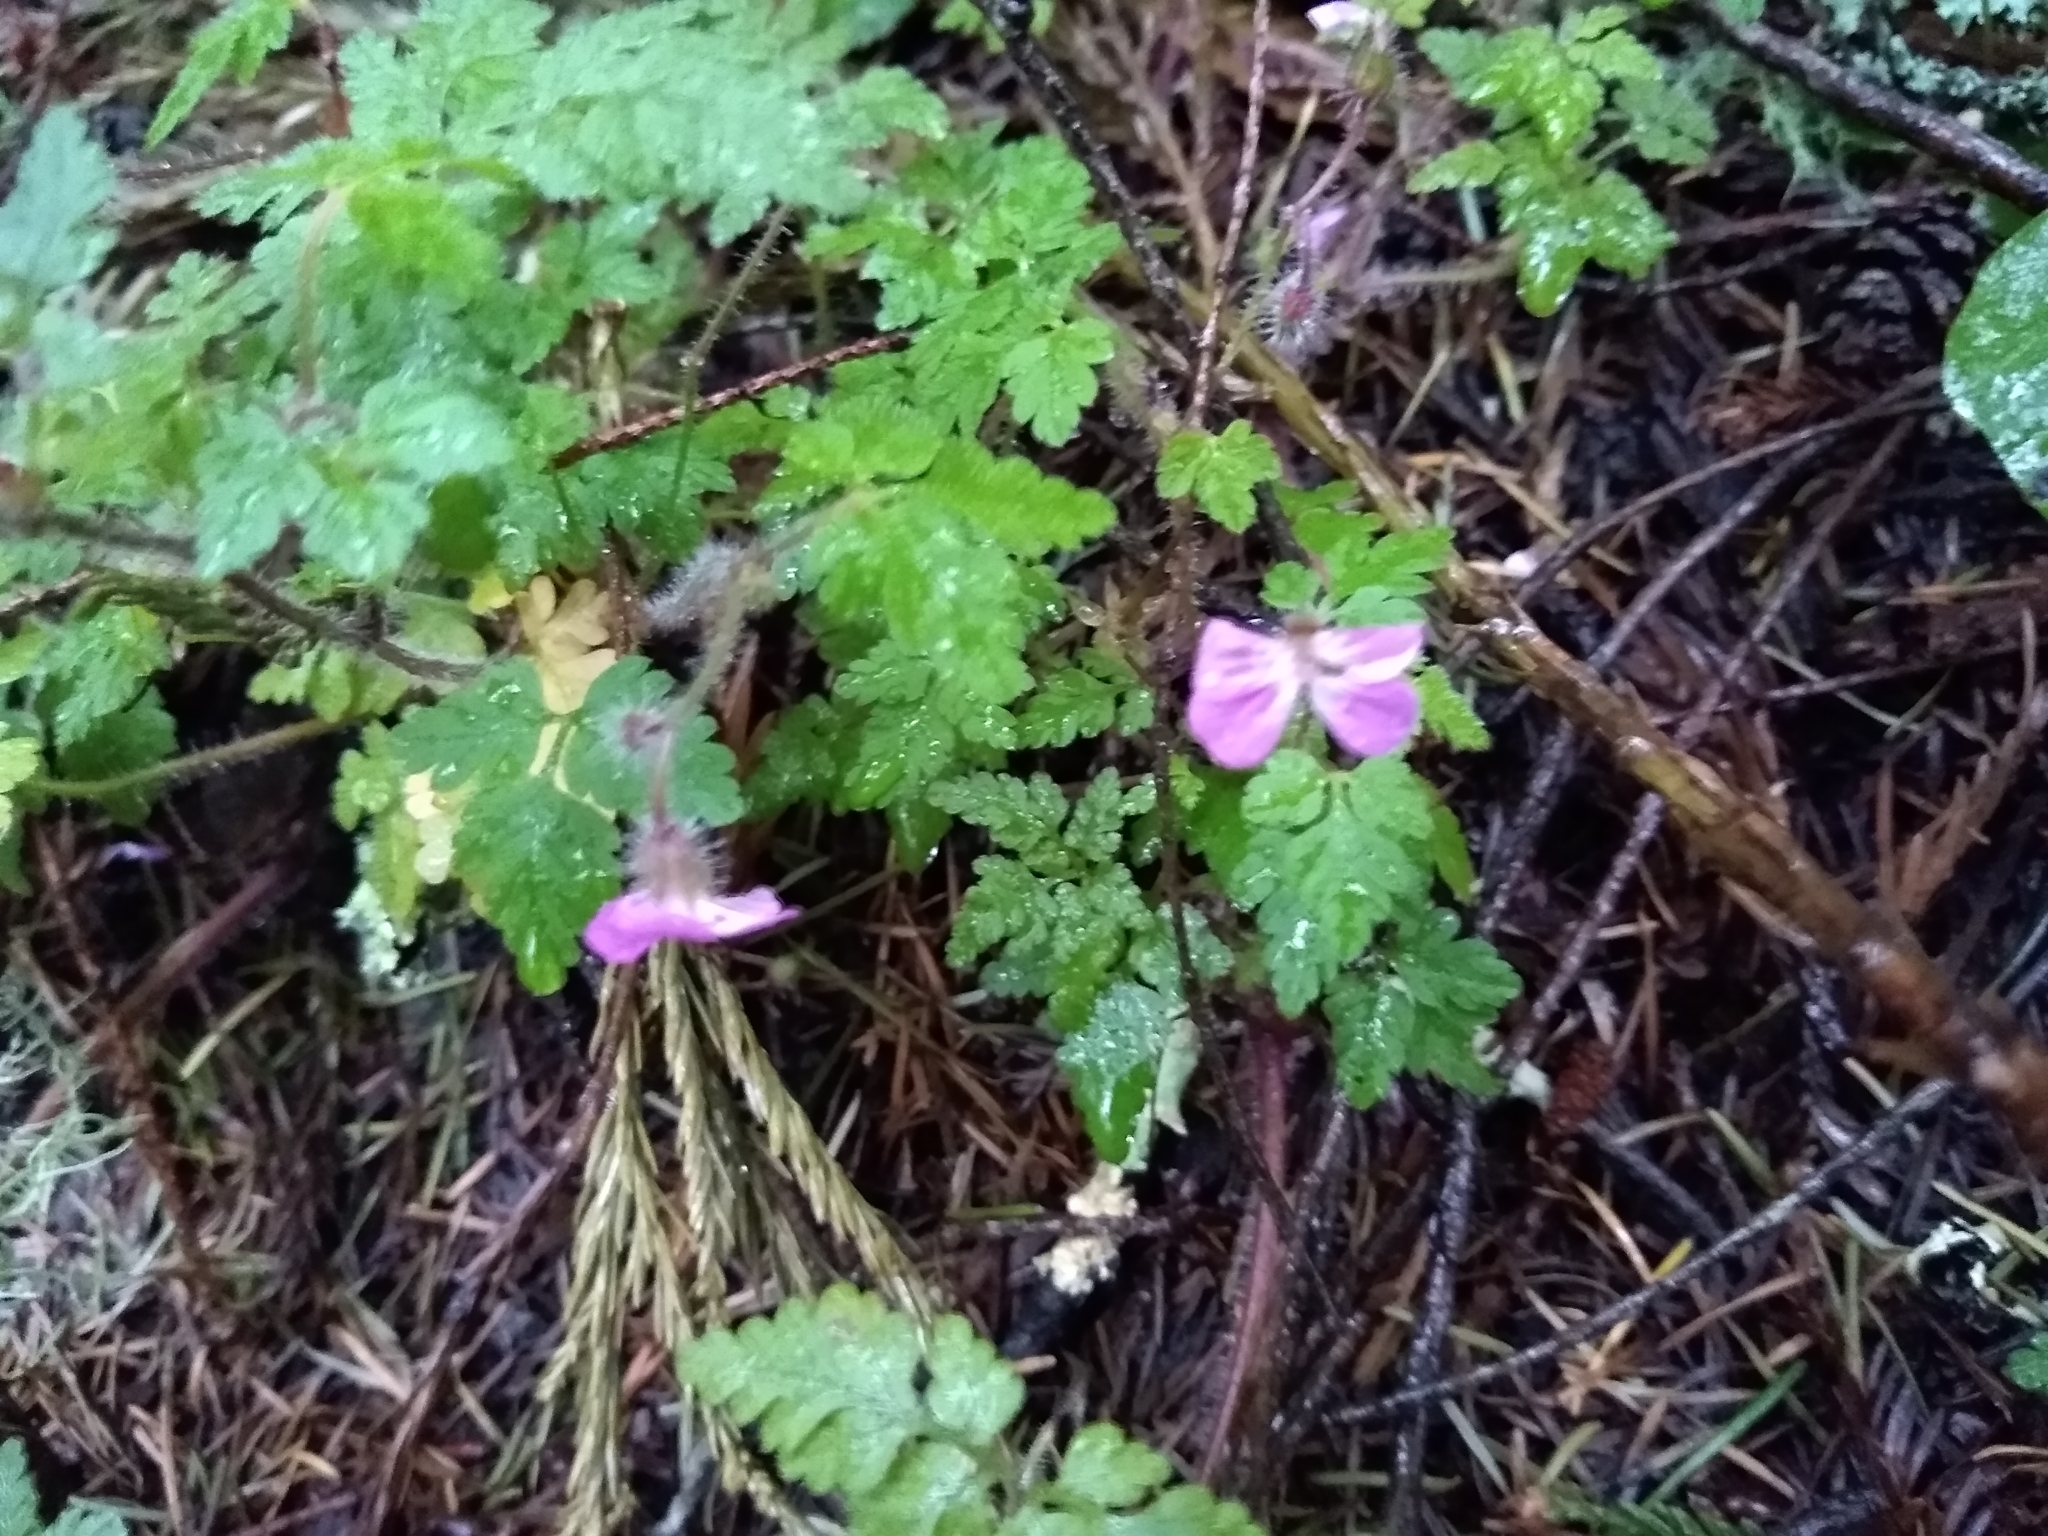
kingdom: Plantae
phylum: Tracheophyta
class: Magnoliopsida
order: Geraniales
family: Geraniaceae
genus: Geranium
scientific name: Geranium robertianum
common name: Herb-robert
